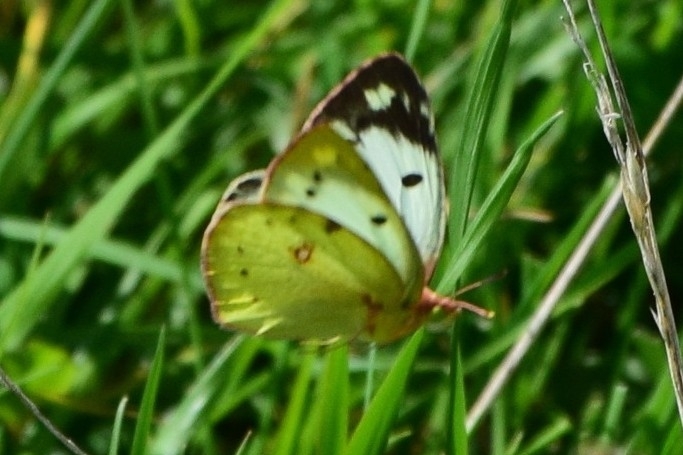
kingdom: Animalia
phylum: Arthropoda
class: Insecta
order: Lepidoptera
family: Pieridae
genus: Colias
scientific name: Colias hyale
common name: Pale clouded yellow
